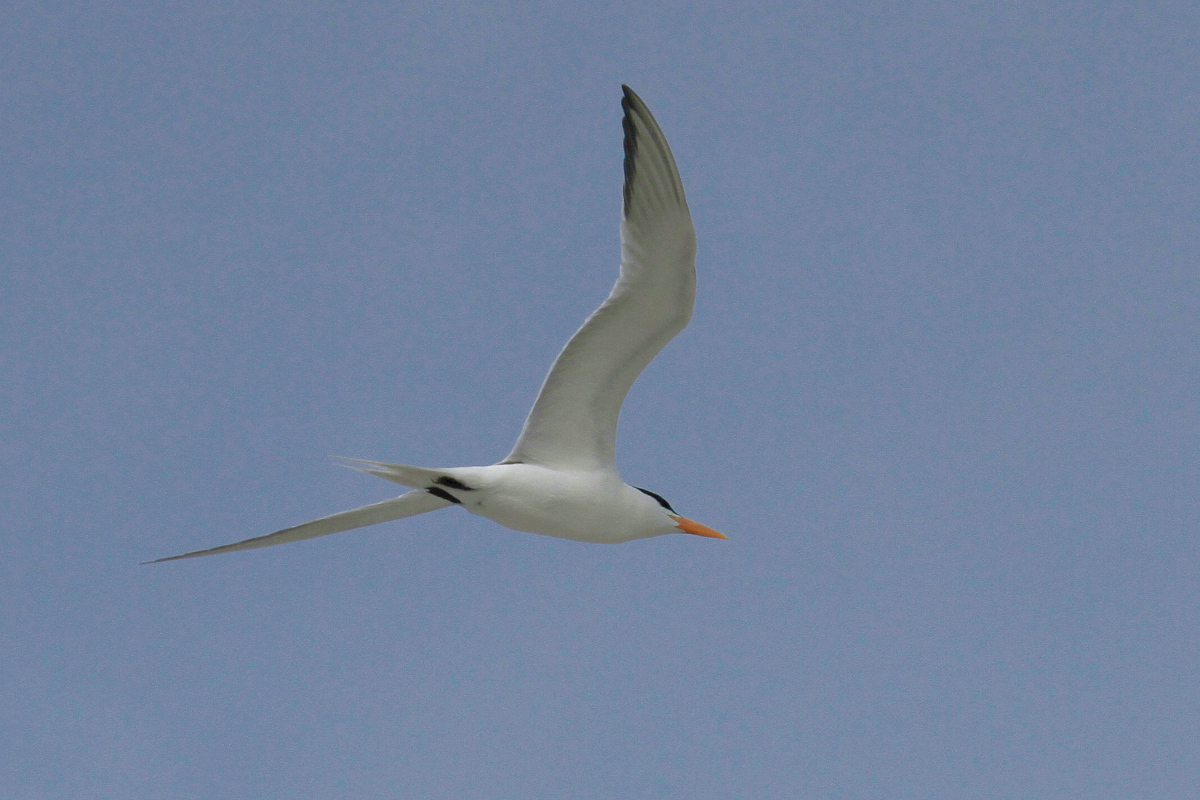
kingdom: Animalia
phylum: Chordata
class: Aves
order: Charadriiformes
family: Laridae
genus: Thalasseus
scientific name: Thalasseus maximus
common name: Royal tern
